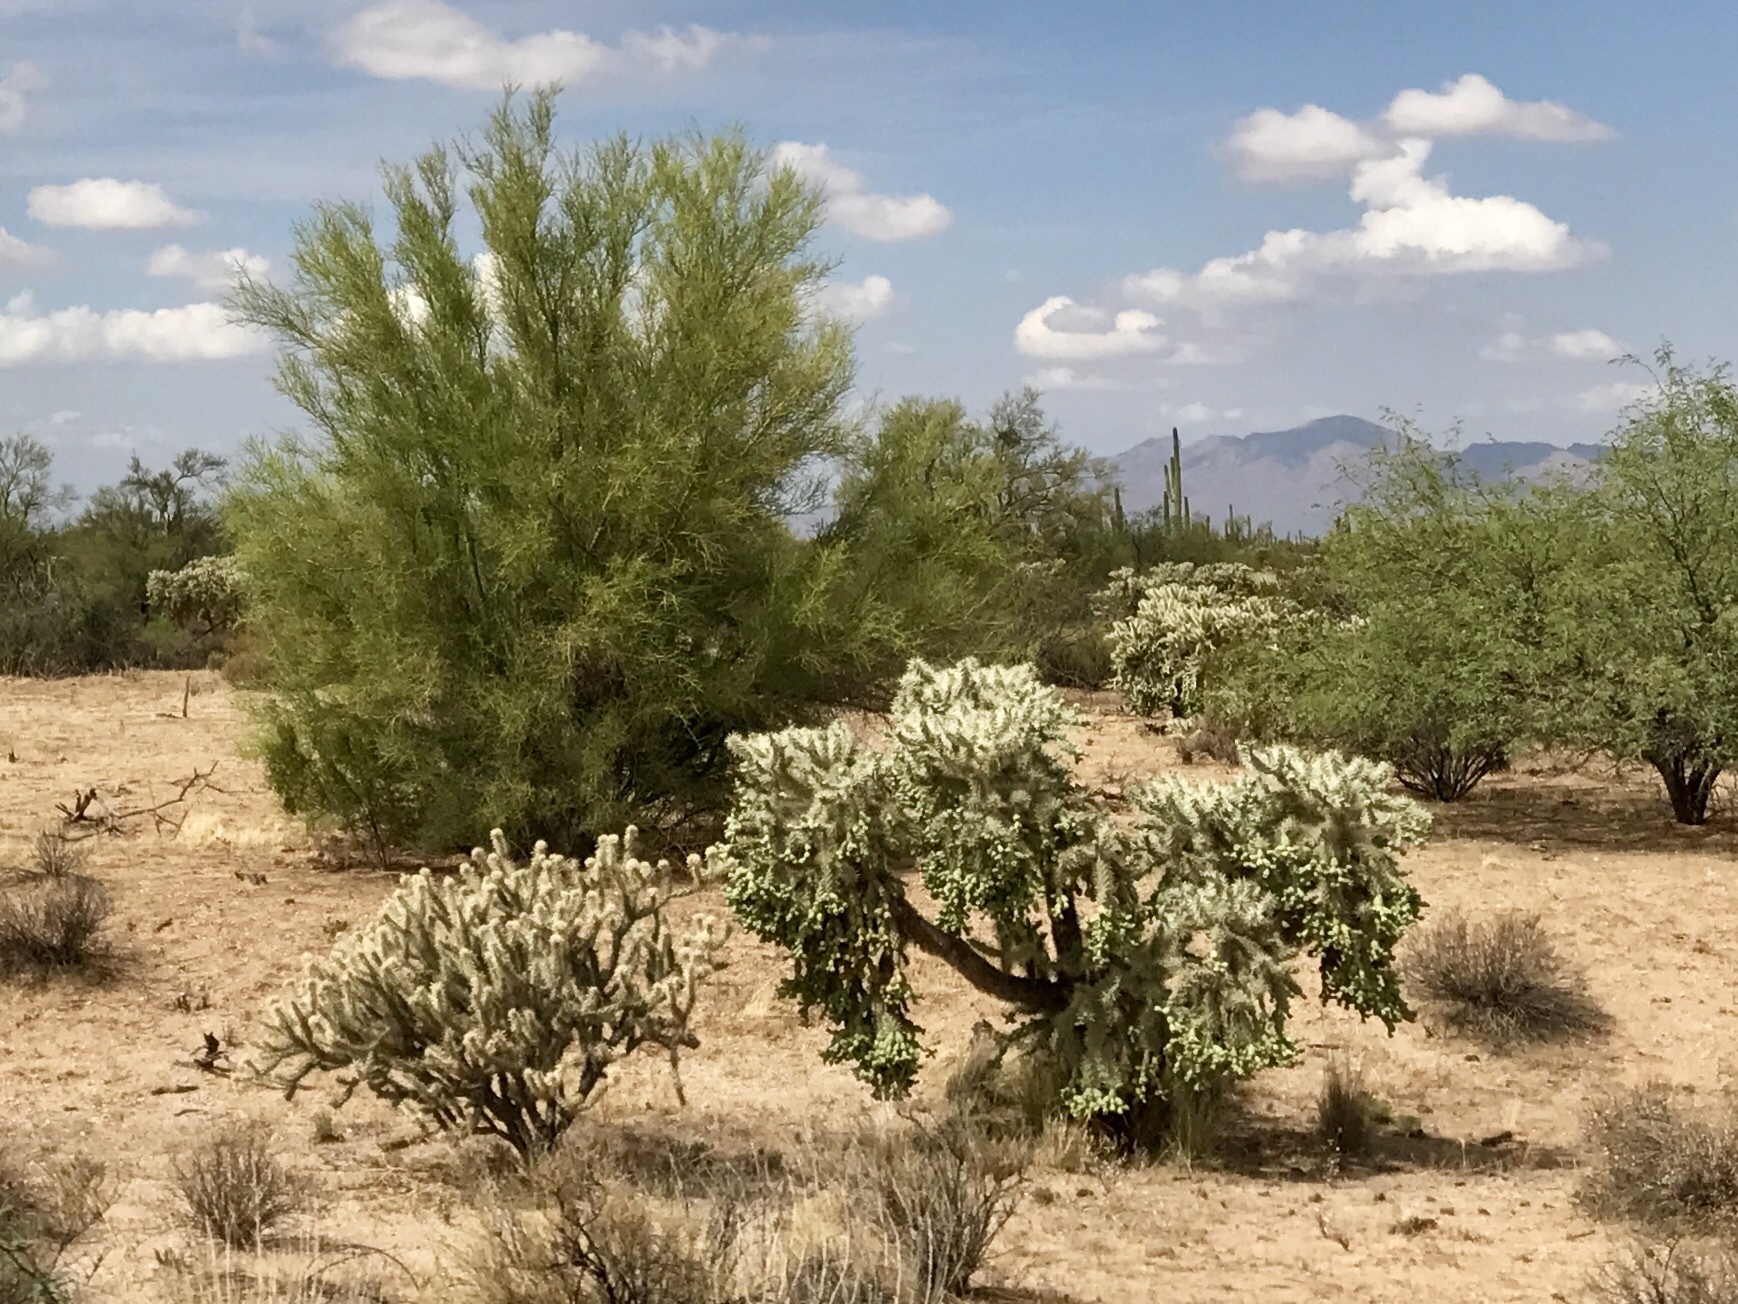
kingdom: Plantae
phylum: Tracheophyta
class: Magnoliopsida
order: Caryophyllales
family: Cactaceae
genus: Cylindropuntia
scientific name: Cylindropuntia fulgida
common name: Jumping cholla
